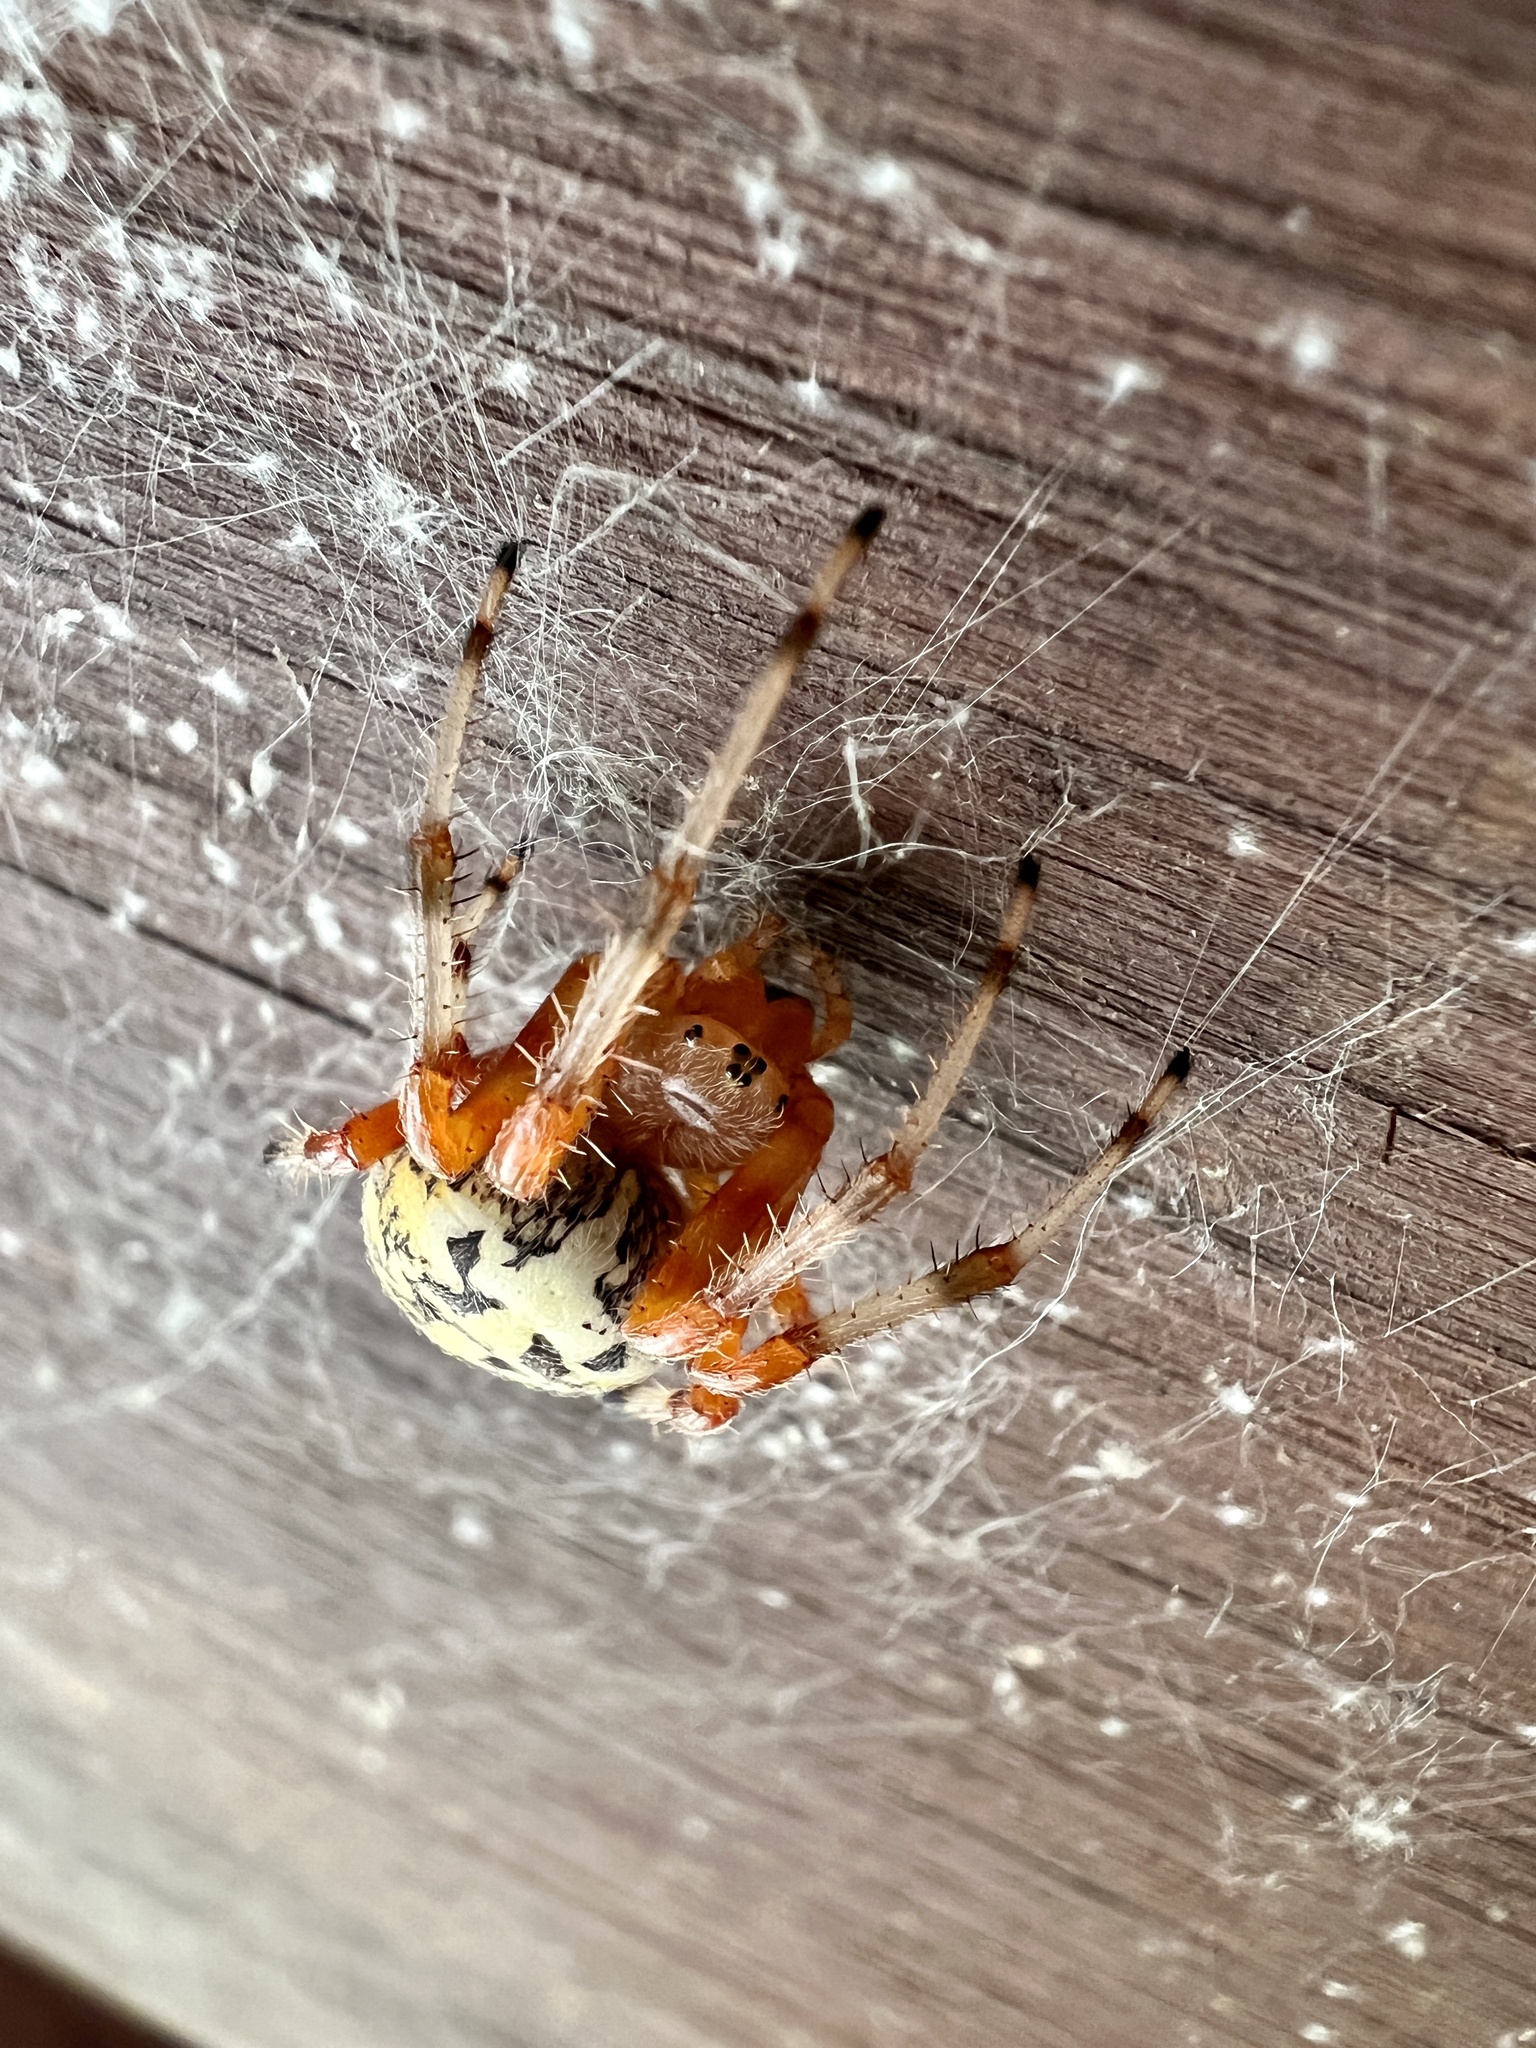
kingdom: Animalia
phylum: Arthropoda
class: Arachnida
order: Araneae
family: Araneidae
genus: Araneus
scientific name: Araneus marmoreus
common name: Marbled orbweaver
